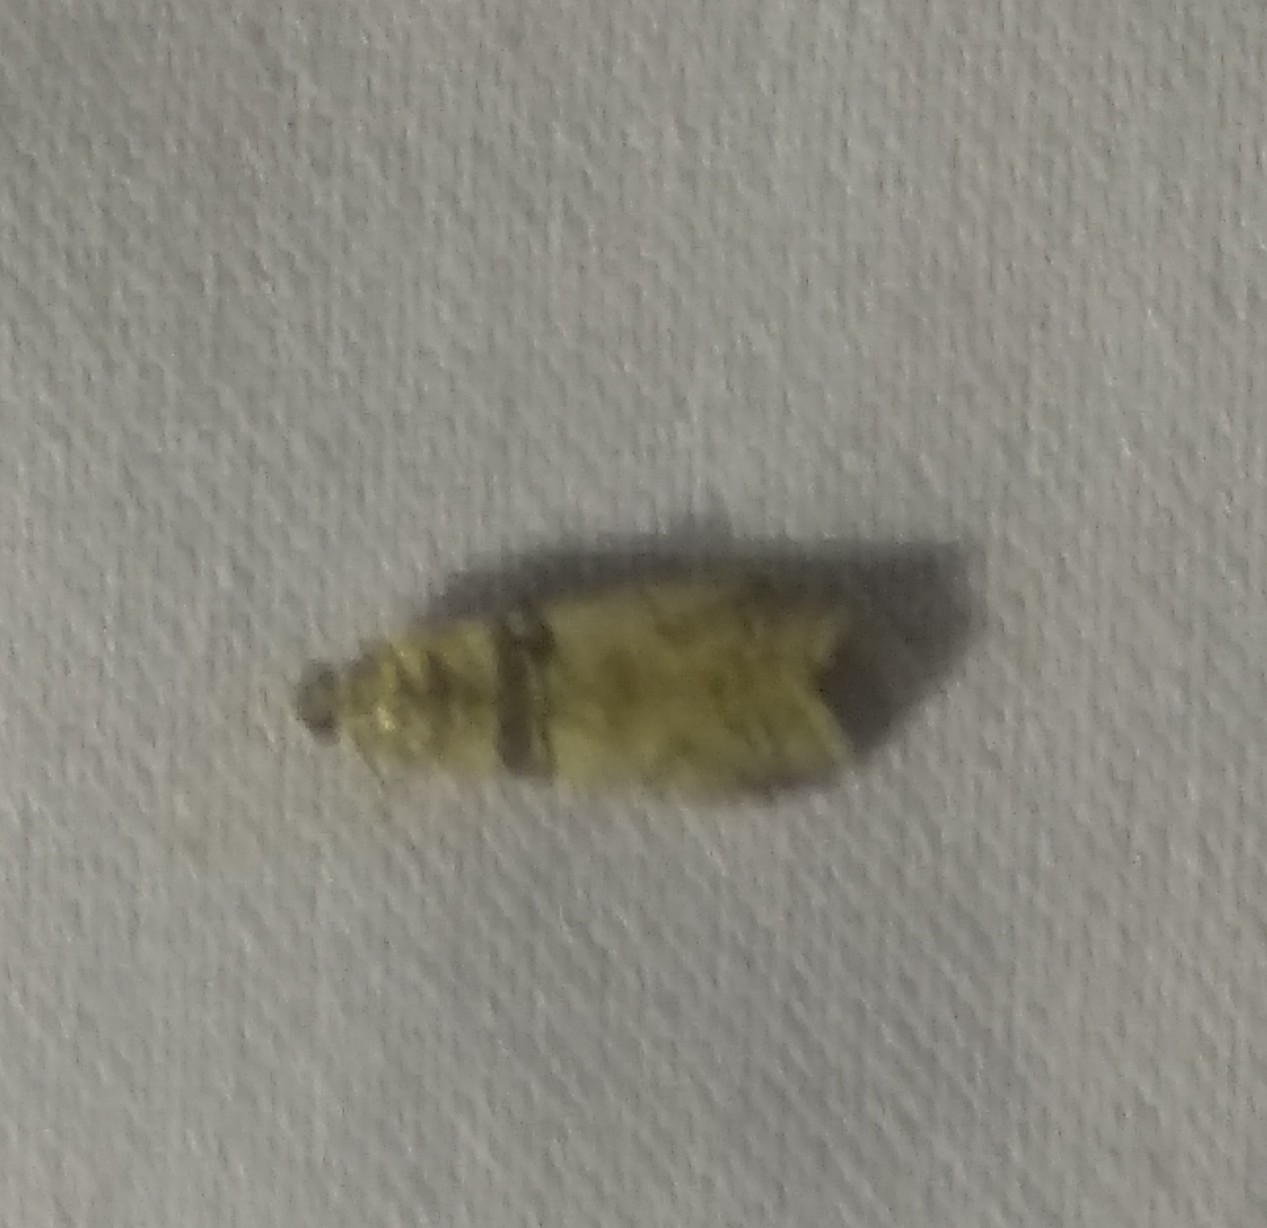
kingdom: Animalia
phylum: Arthropoda
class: Insecta
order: Lepidoptera
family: Pyralidae
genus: Sciota
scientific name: Sciota rhenella
